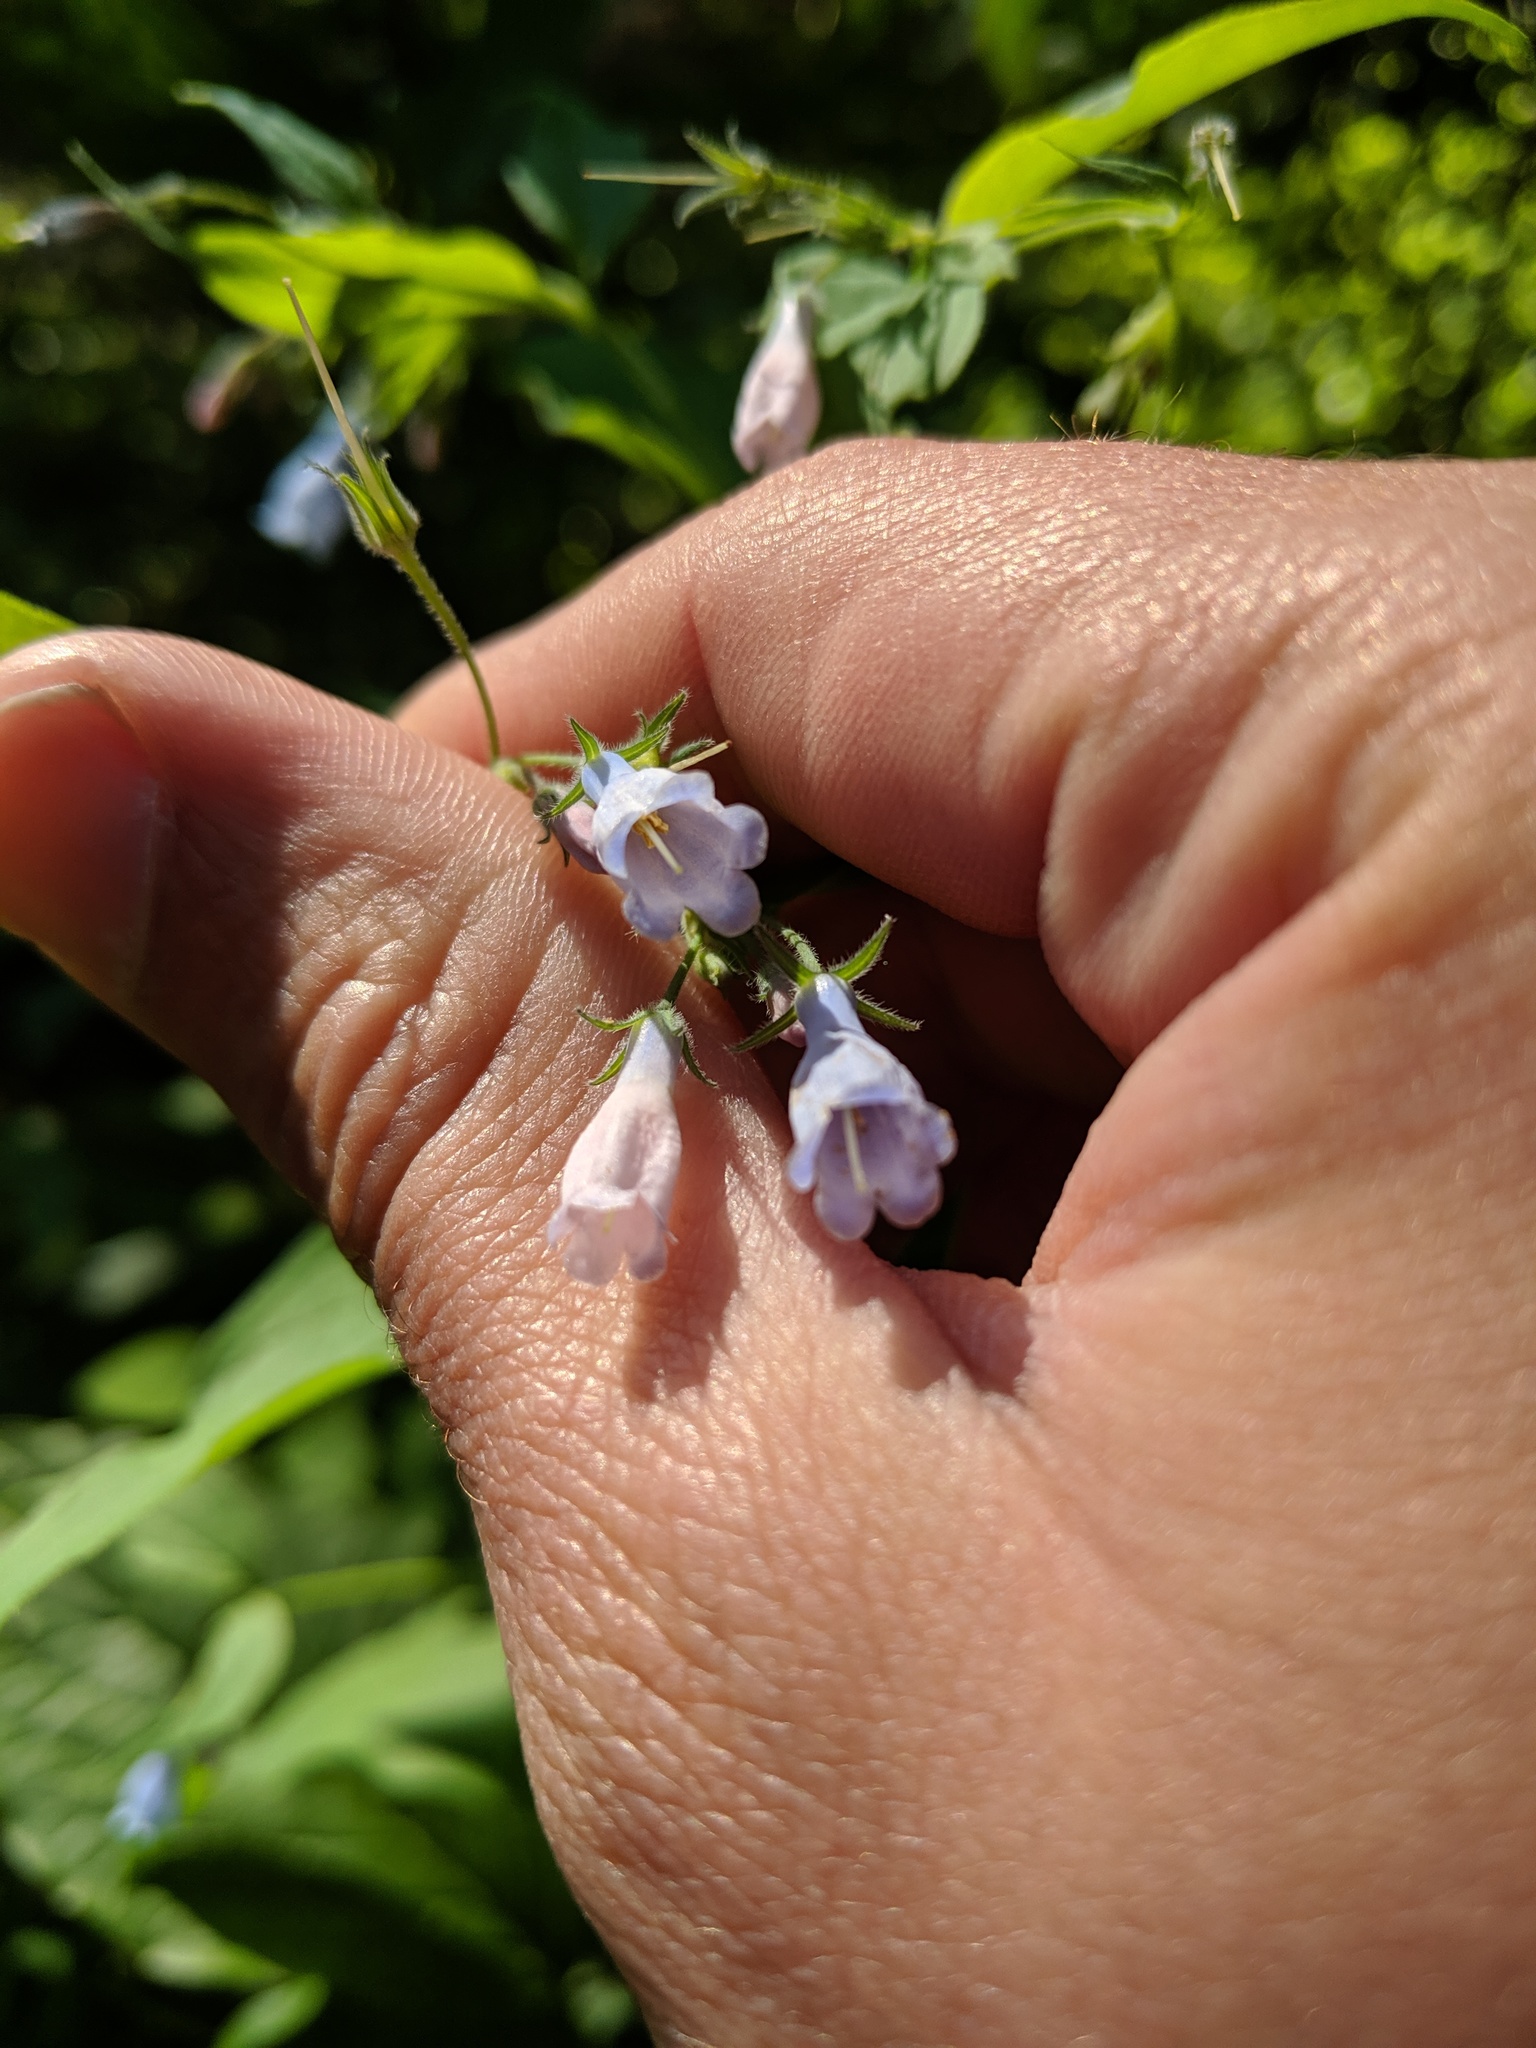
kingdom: Plantae
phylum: Tracheophyta
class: Magnoliopsida
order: Boraginales
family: Boraginaceae
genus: Mertensia
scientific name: Mertensia paniculata
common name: Panicled bluebells
